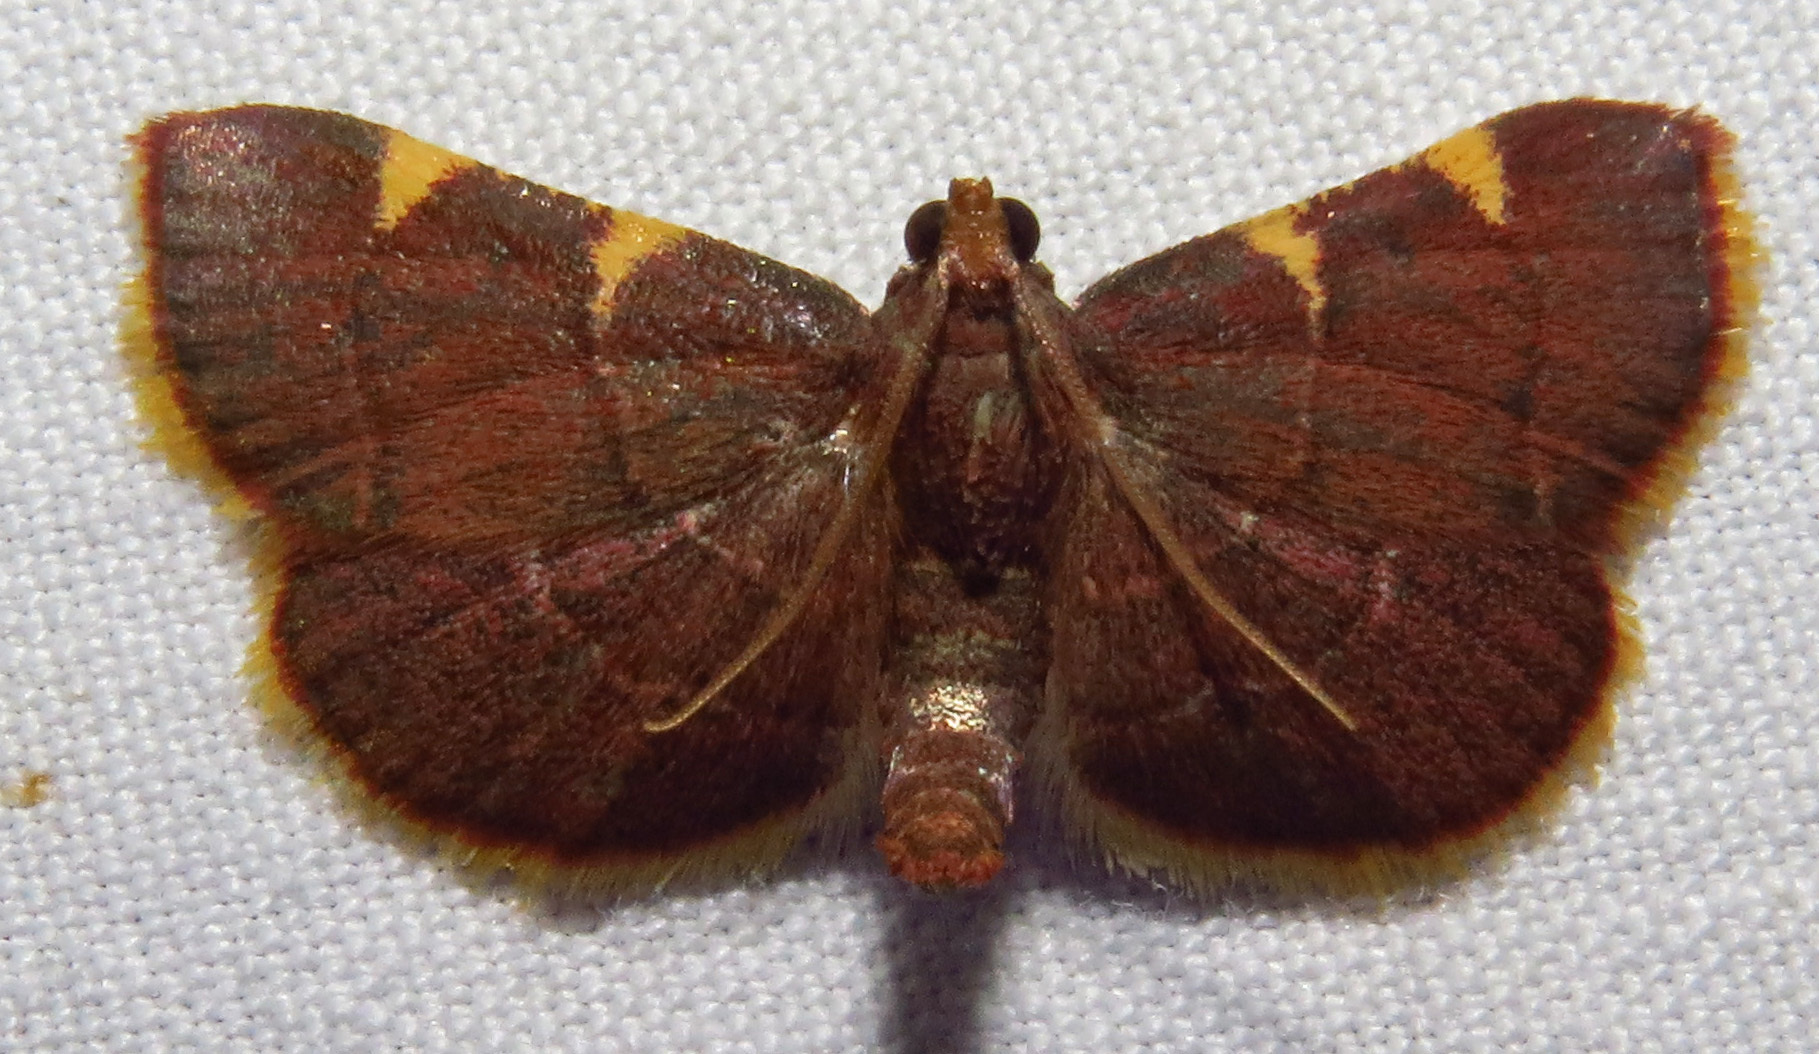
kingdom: Animalia
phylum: Arthropoda
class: Insecta
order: Lepidoptera
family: Pyralidae
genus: Hypsopygia
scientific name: Hypsopygia olinalis
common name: Yellow-fringed dolichomia moth
